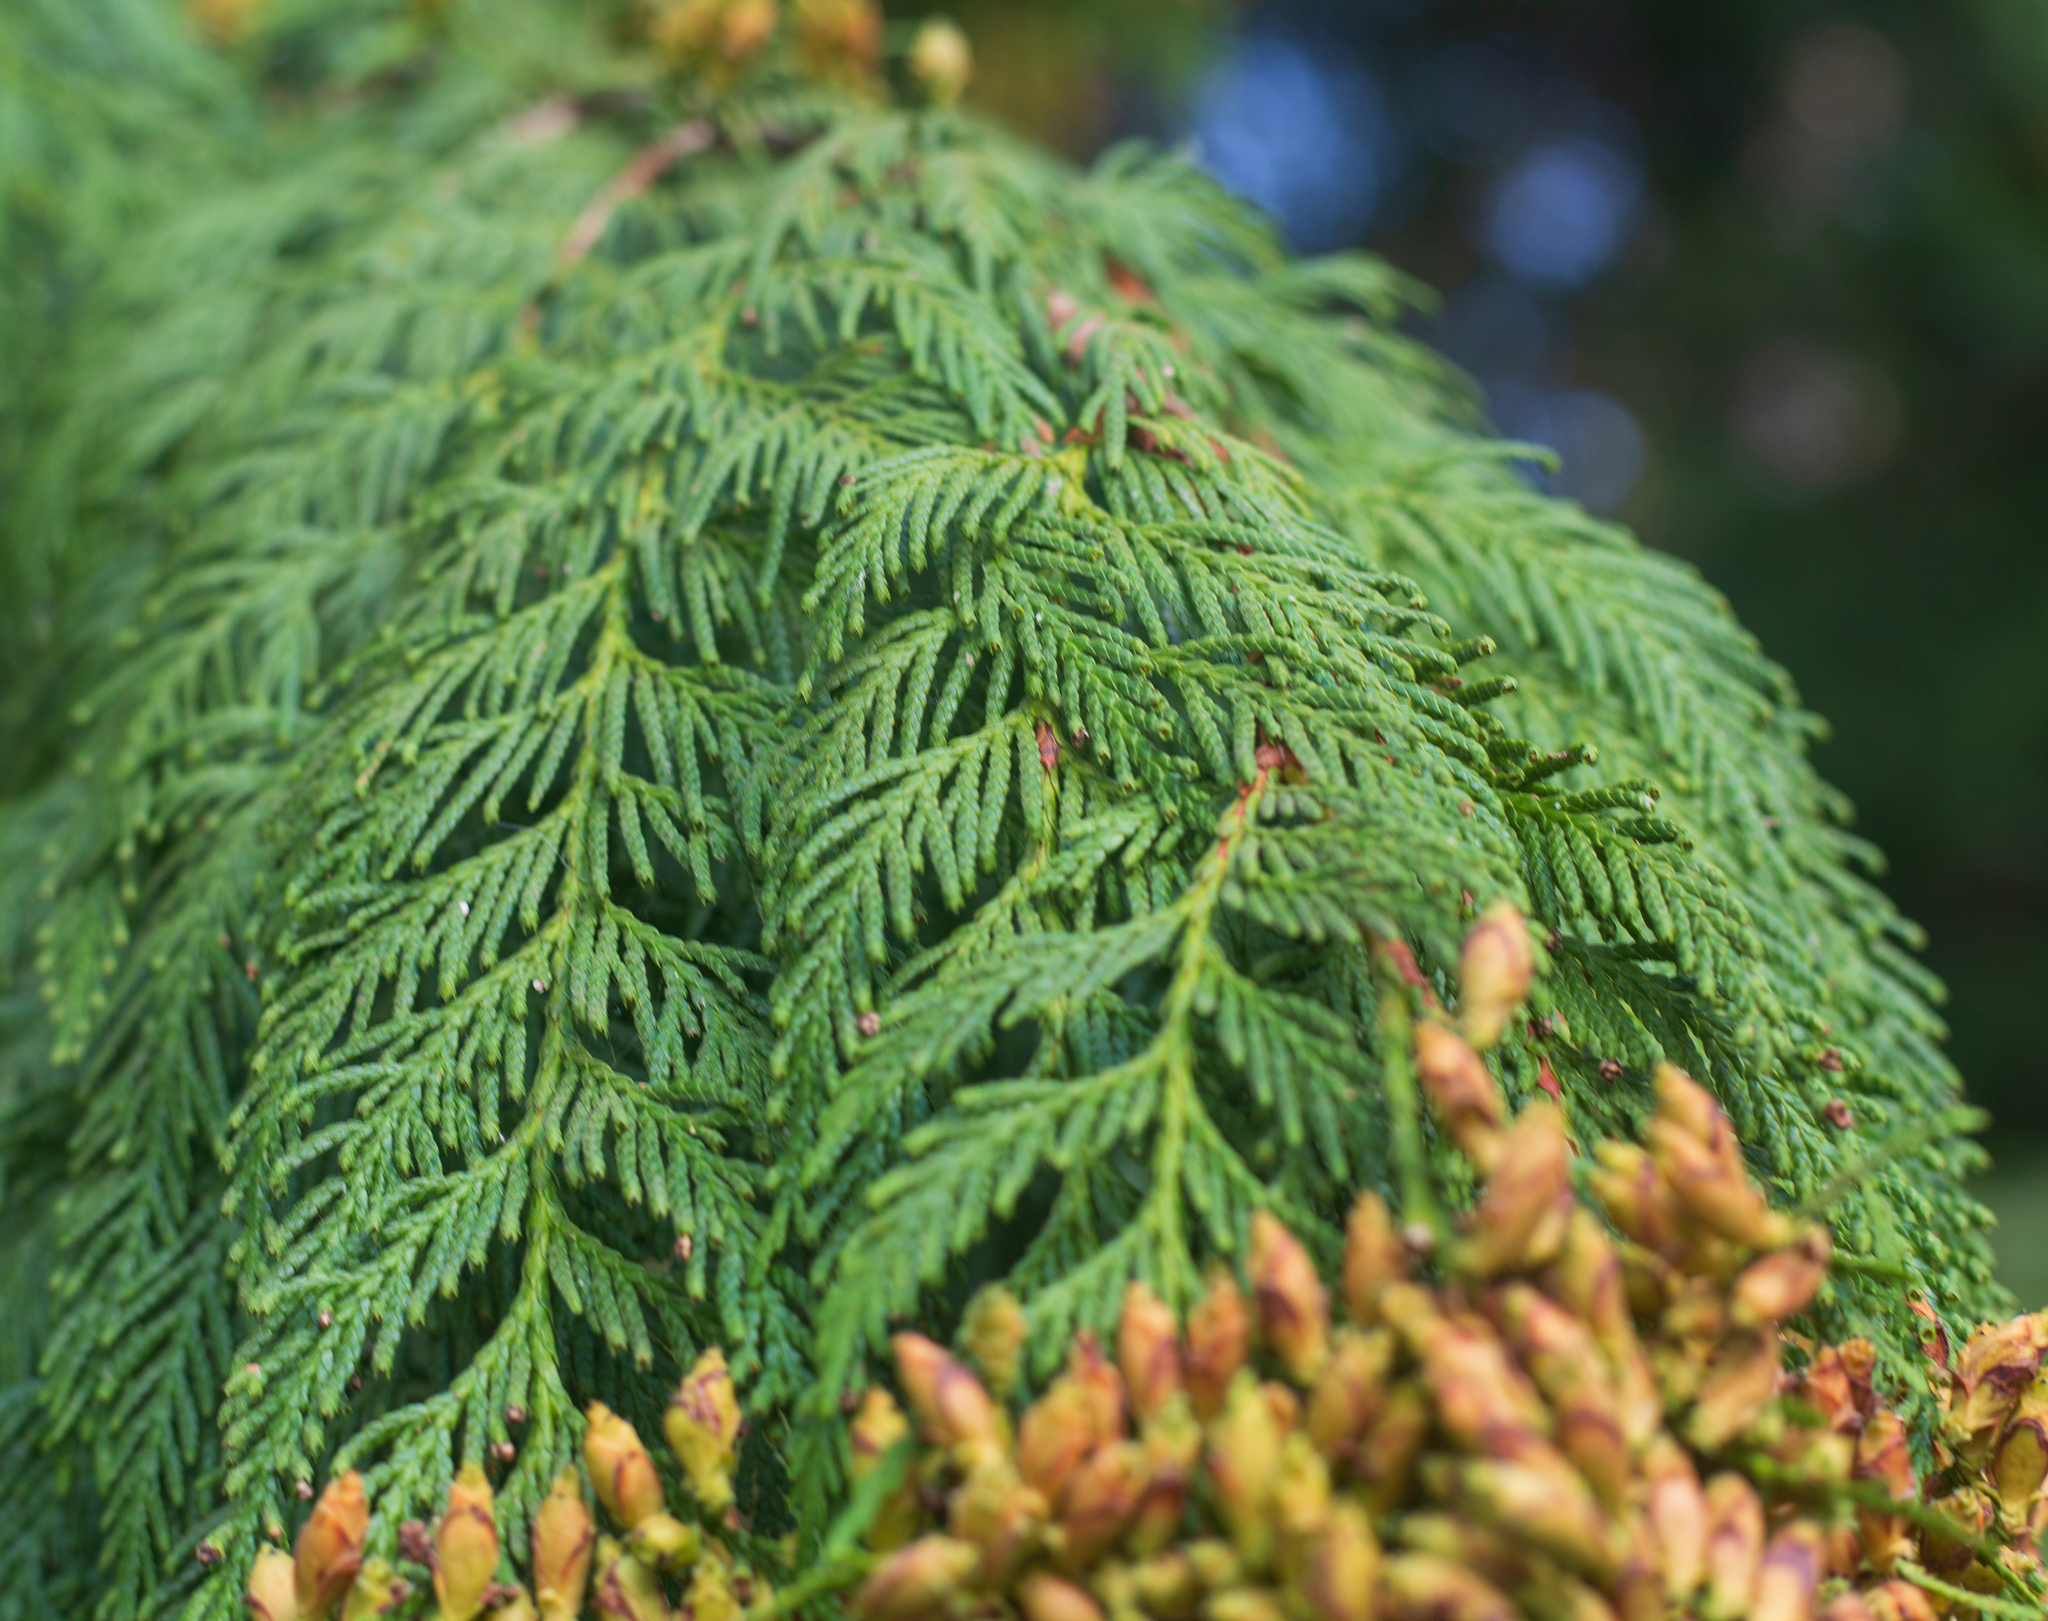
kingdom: Plantae
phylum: Tracheophyta
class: Pinopsida
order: Pinales
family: Cupressaceae
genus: Thuja
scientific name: Thuja plicata
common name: Western red-cedar
